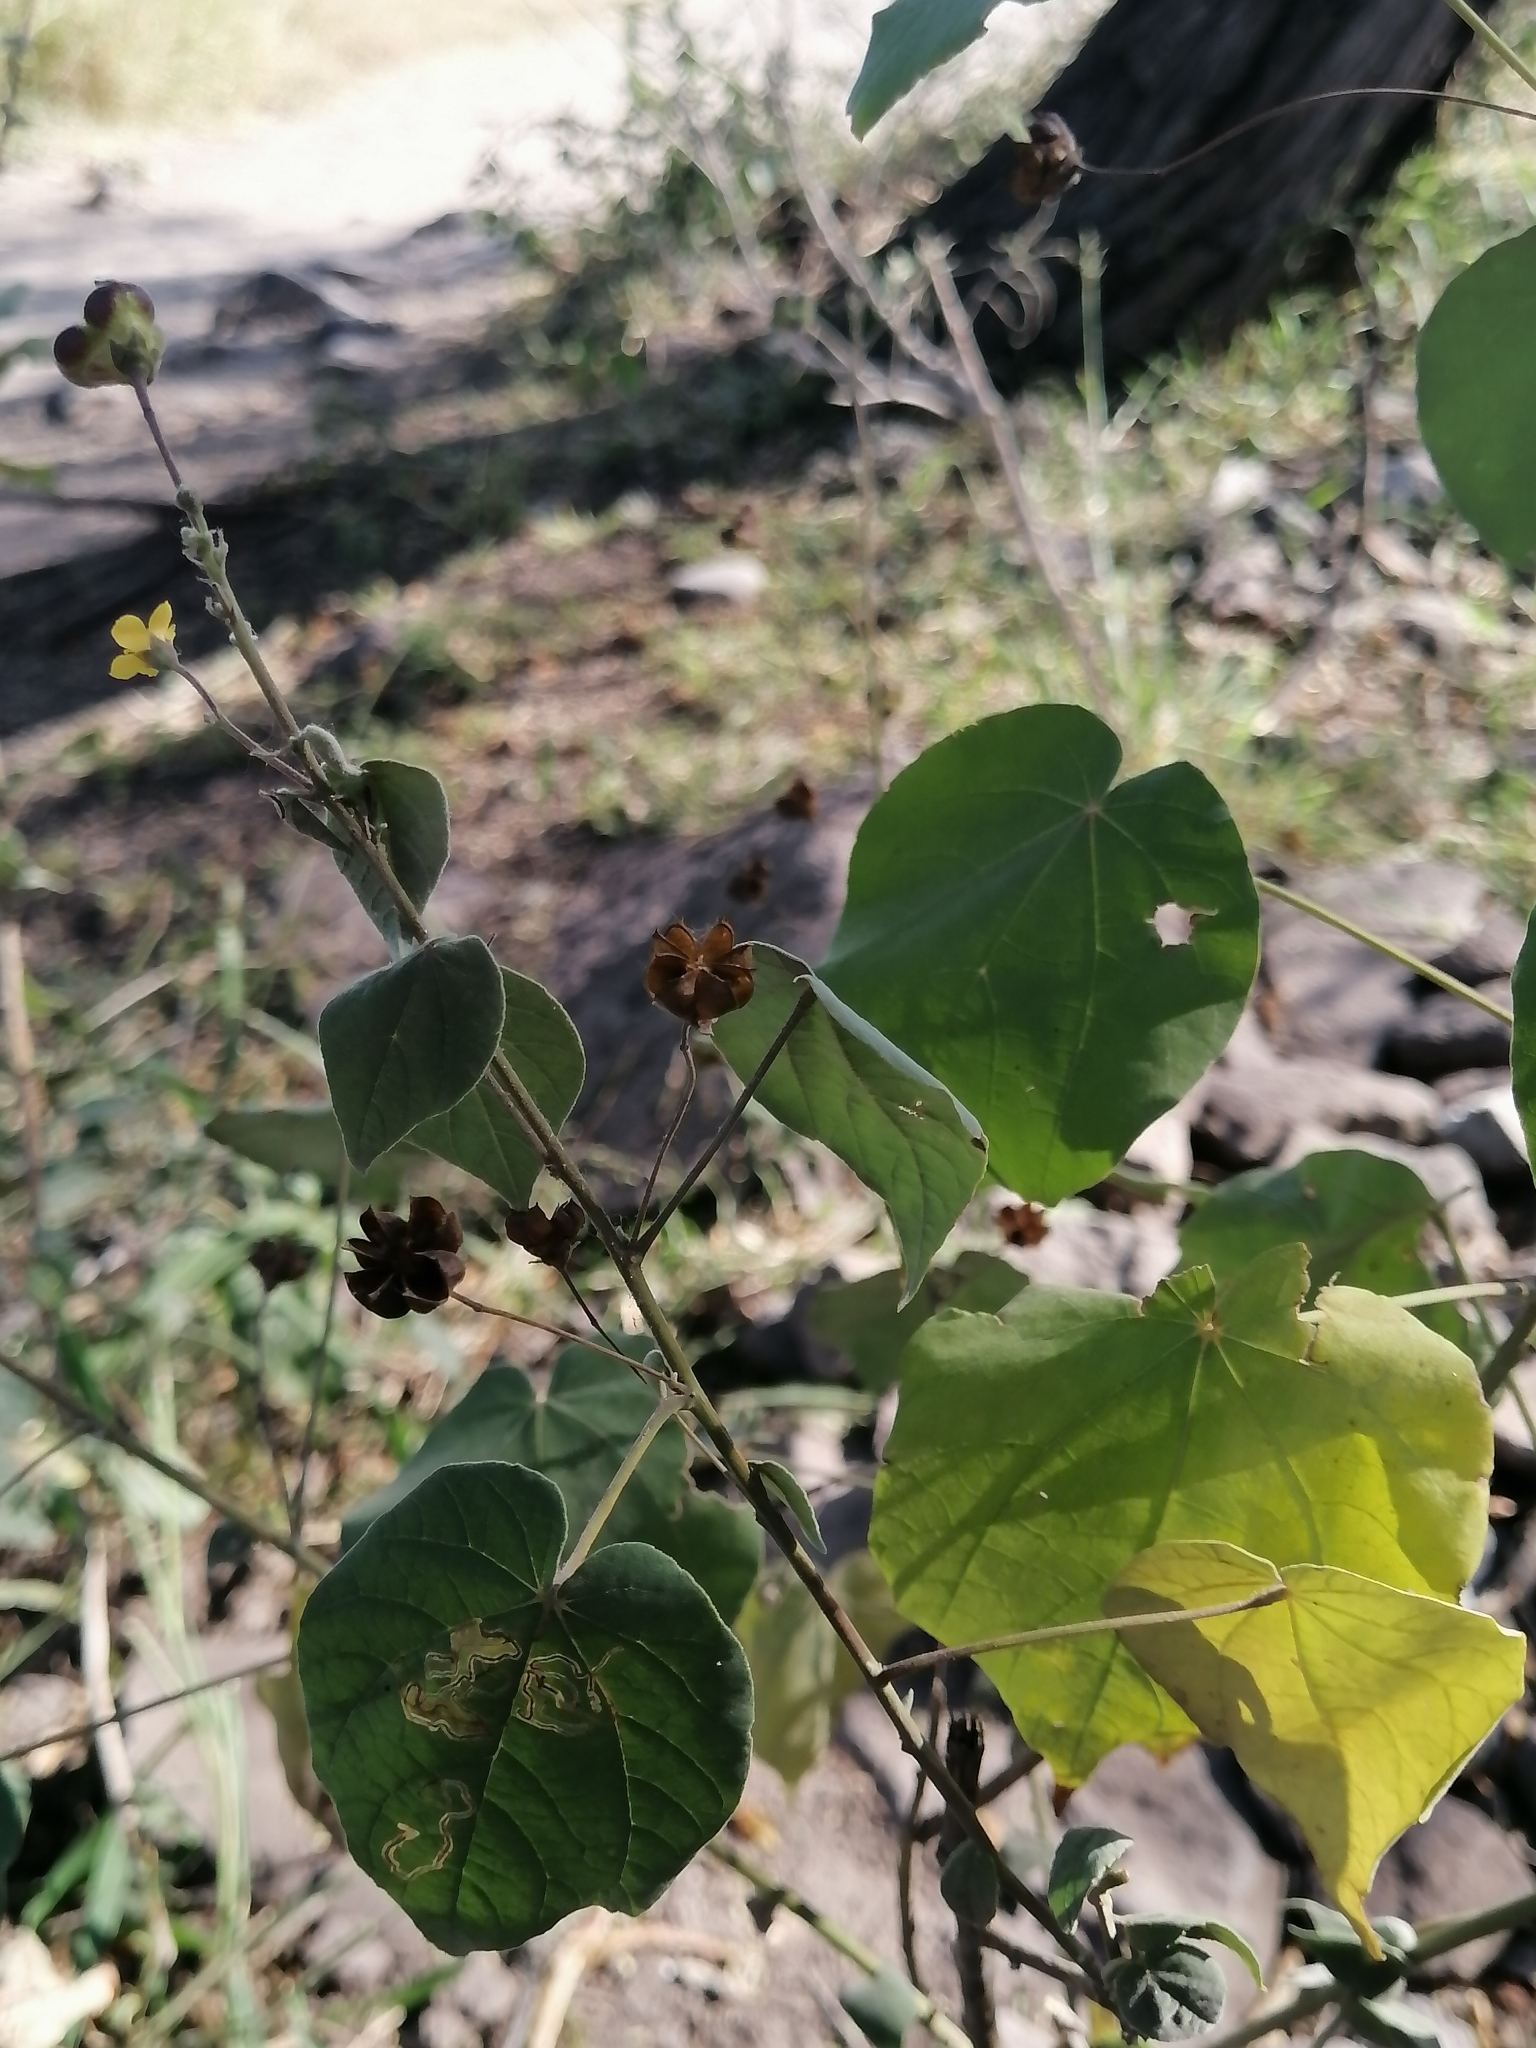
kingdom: Plantae
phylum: Tracheophyta
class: Magnoliopsida
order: Malvales
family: Malvaceae
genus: Wissadula
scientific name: Wissadula amplissima
